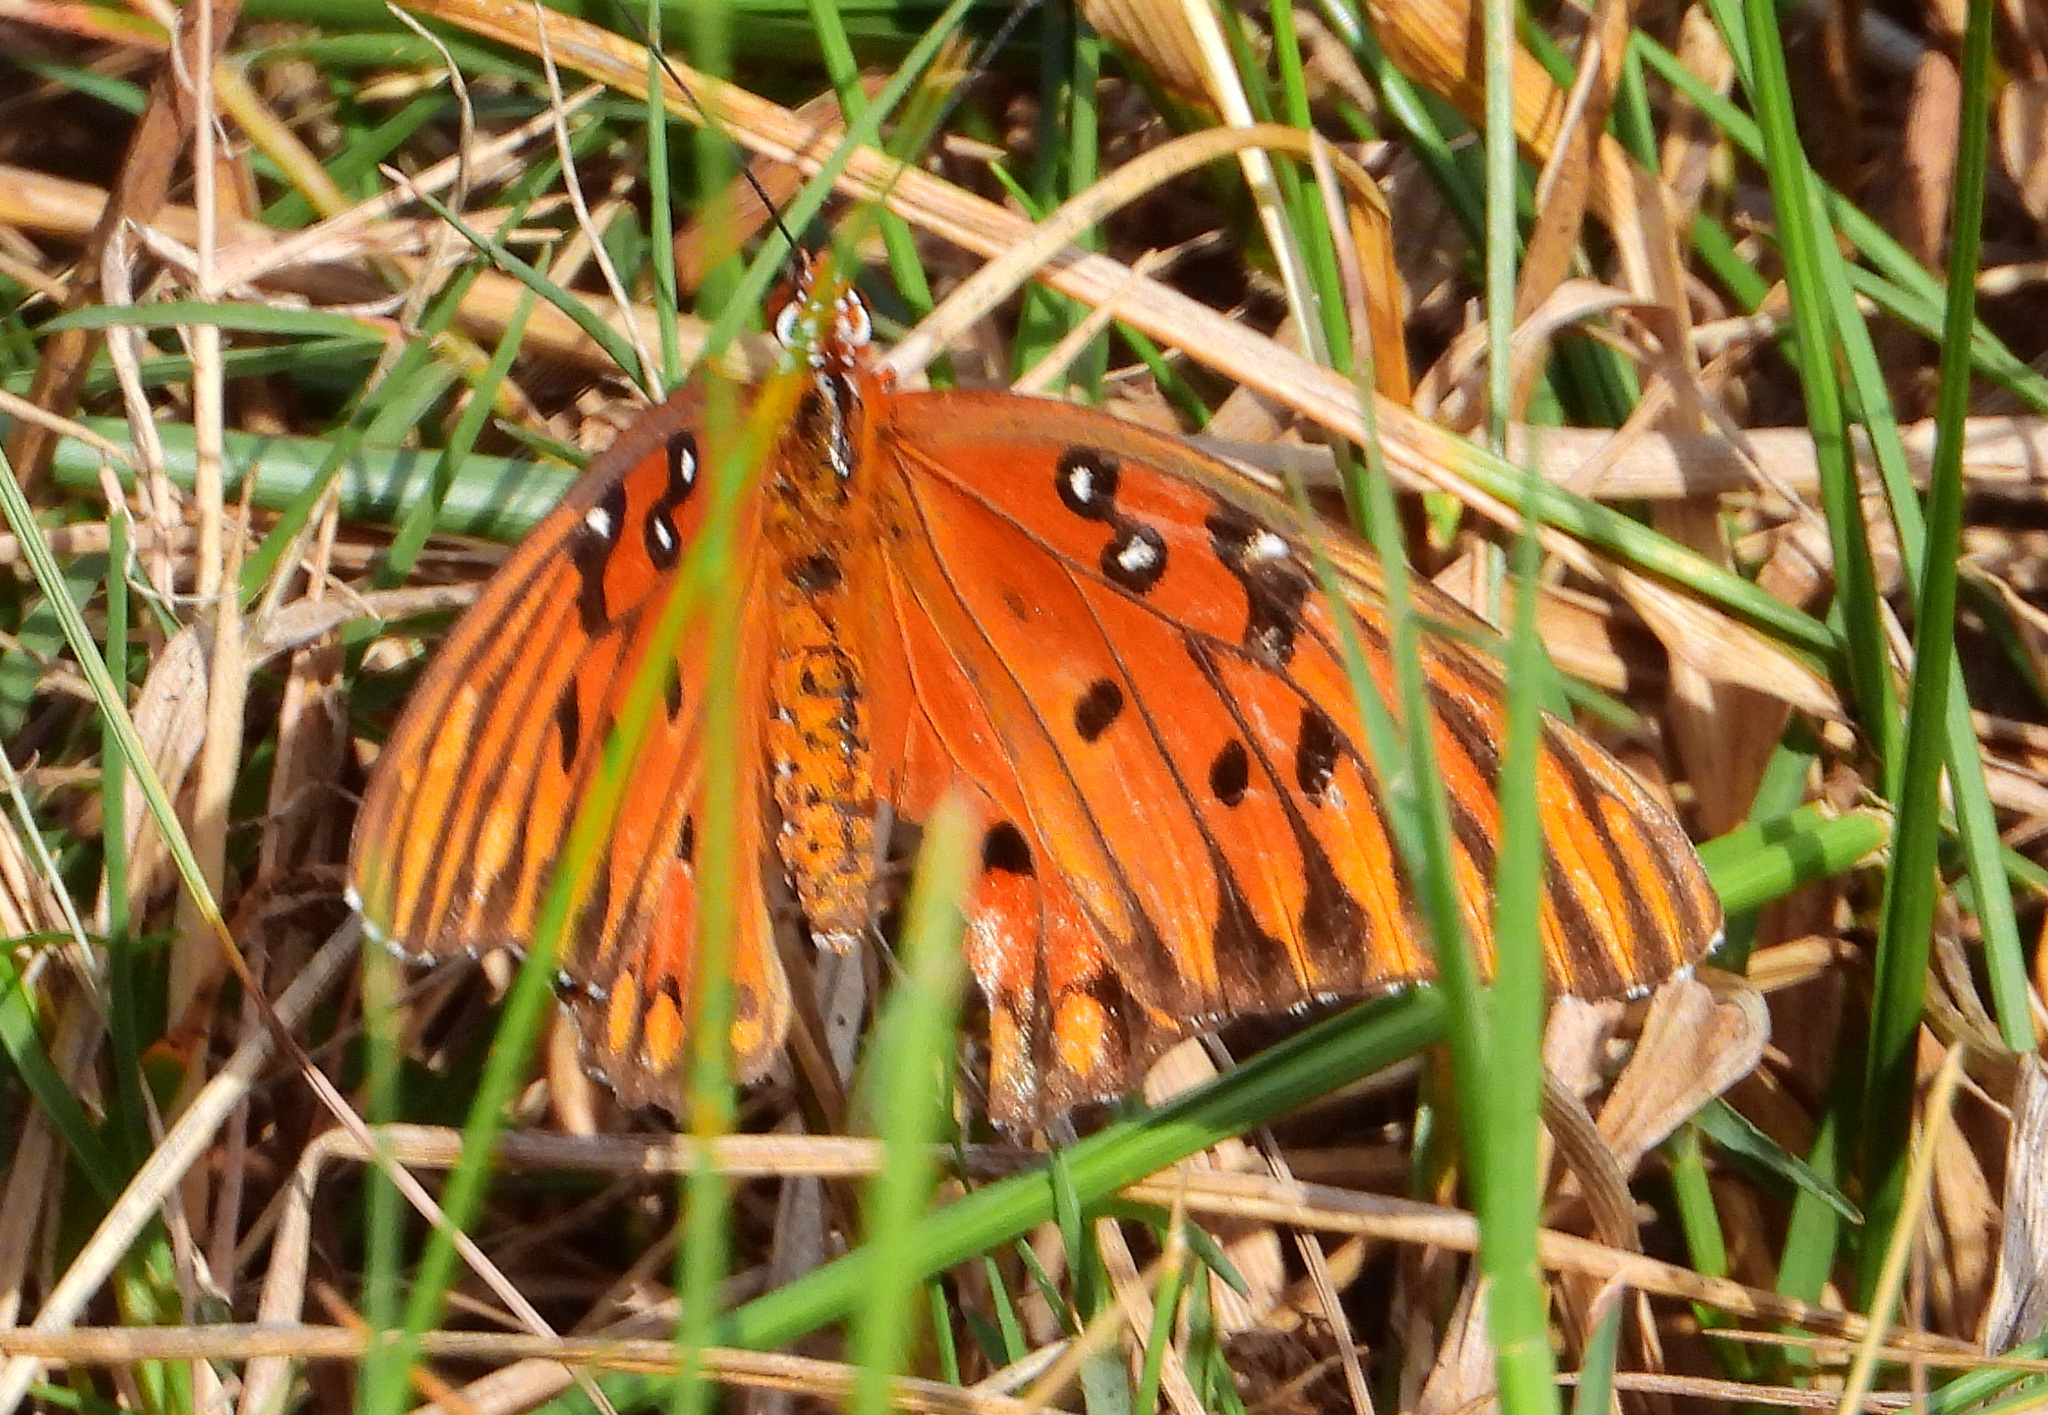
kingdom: Animalia
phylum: Arthropoda
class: Insecta
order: Lepidoptera
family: Nymphalidae
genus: Dione
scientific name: Dione vanillae
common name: Gulf fritillary
